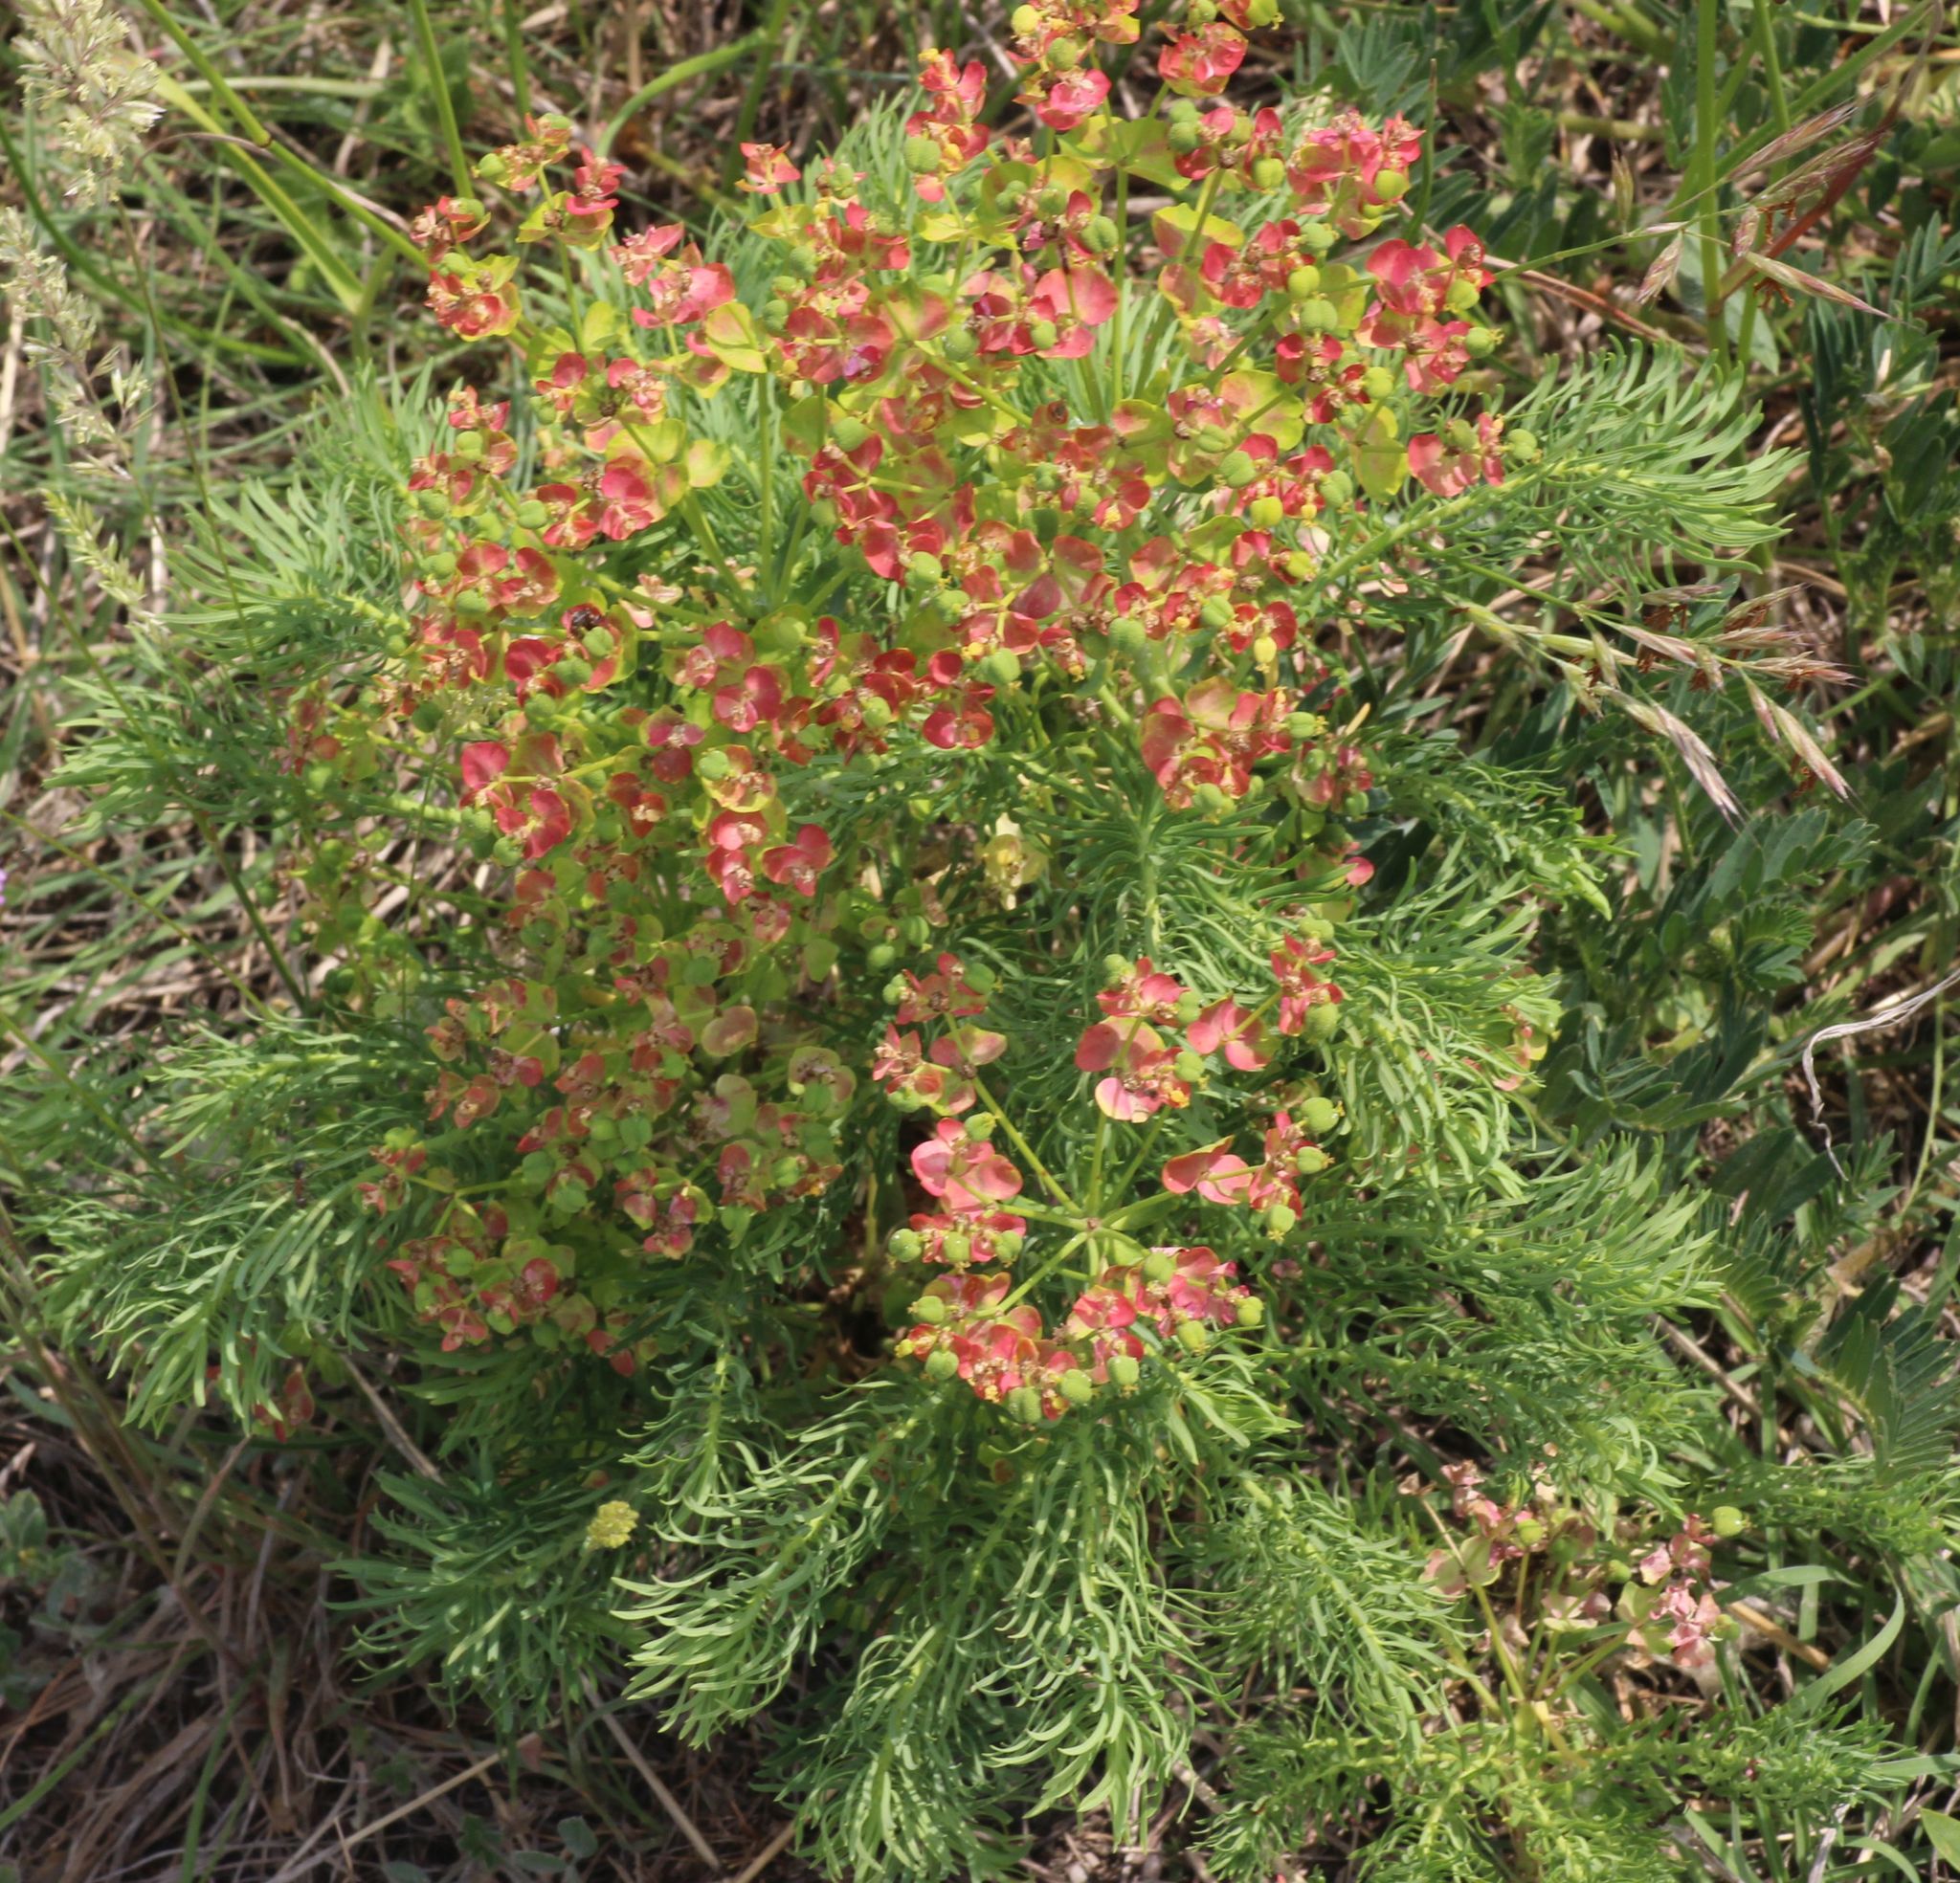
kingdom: Plantae
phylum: Tracheophyta
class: Magnoliopsida
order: Malpighiales
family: Euphorbiaceae
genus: Euphorbia
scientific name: Euphorbia cyparissias
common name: Cypress spurge
